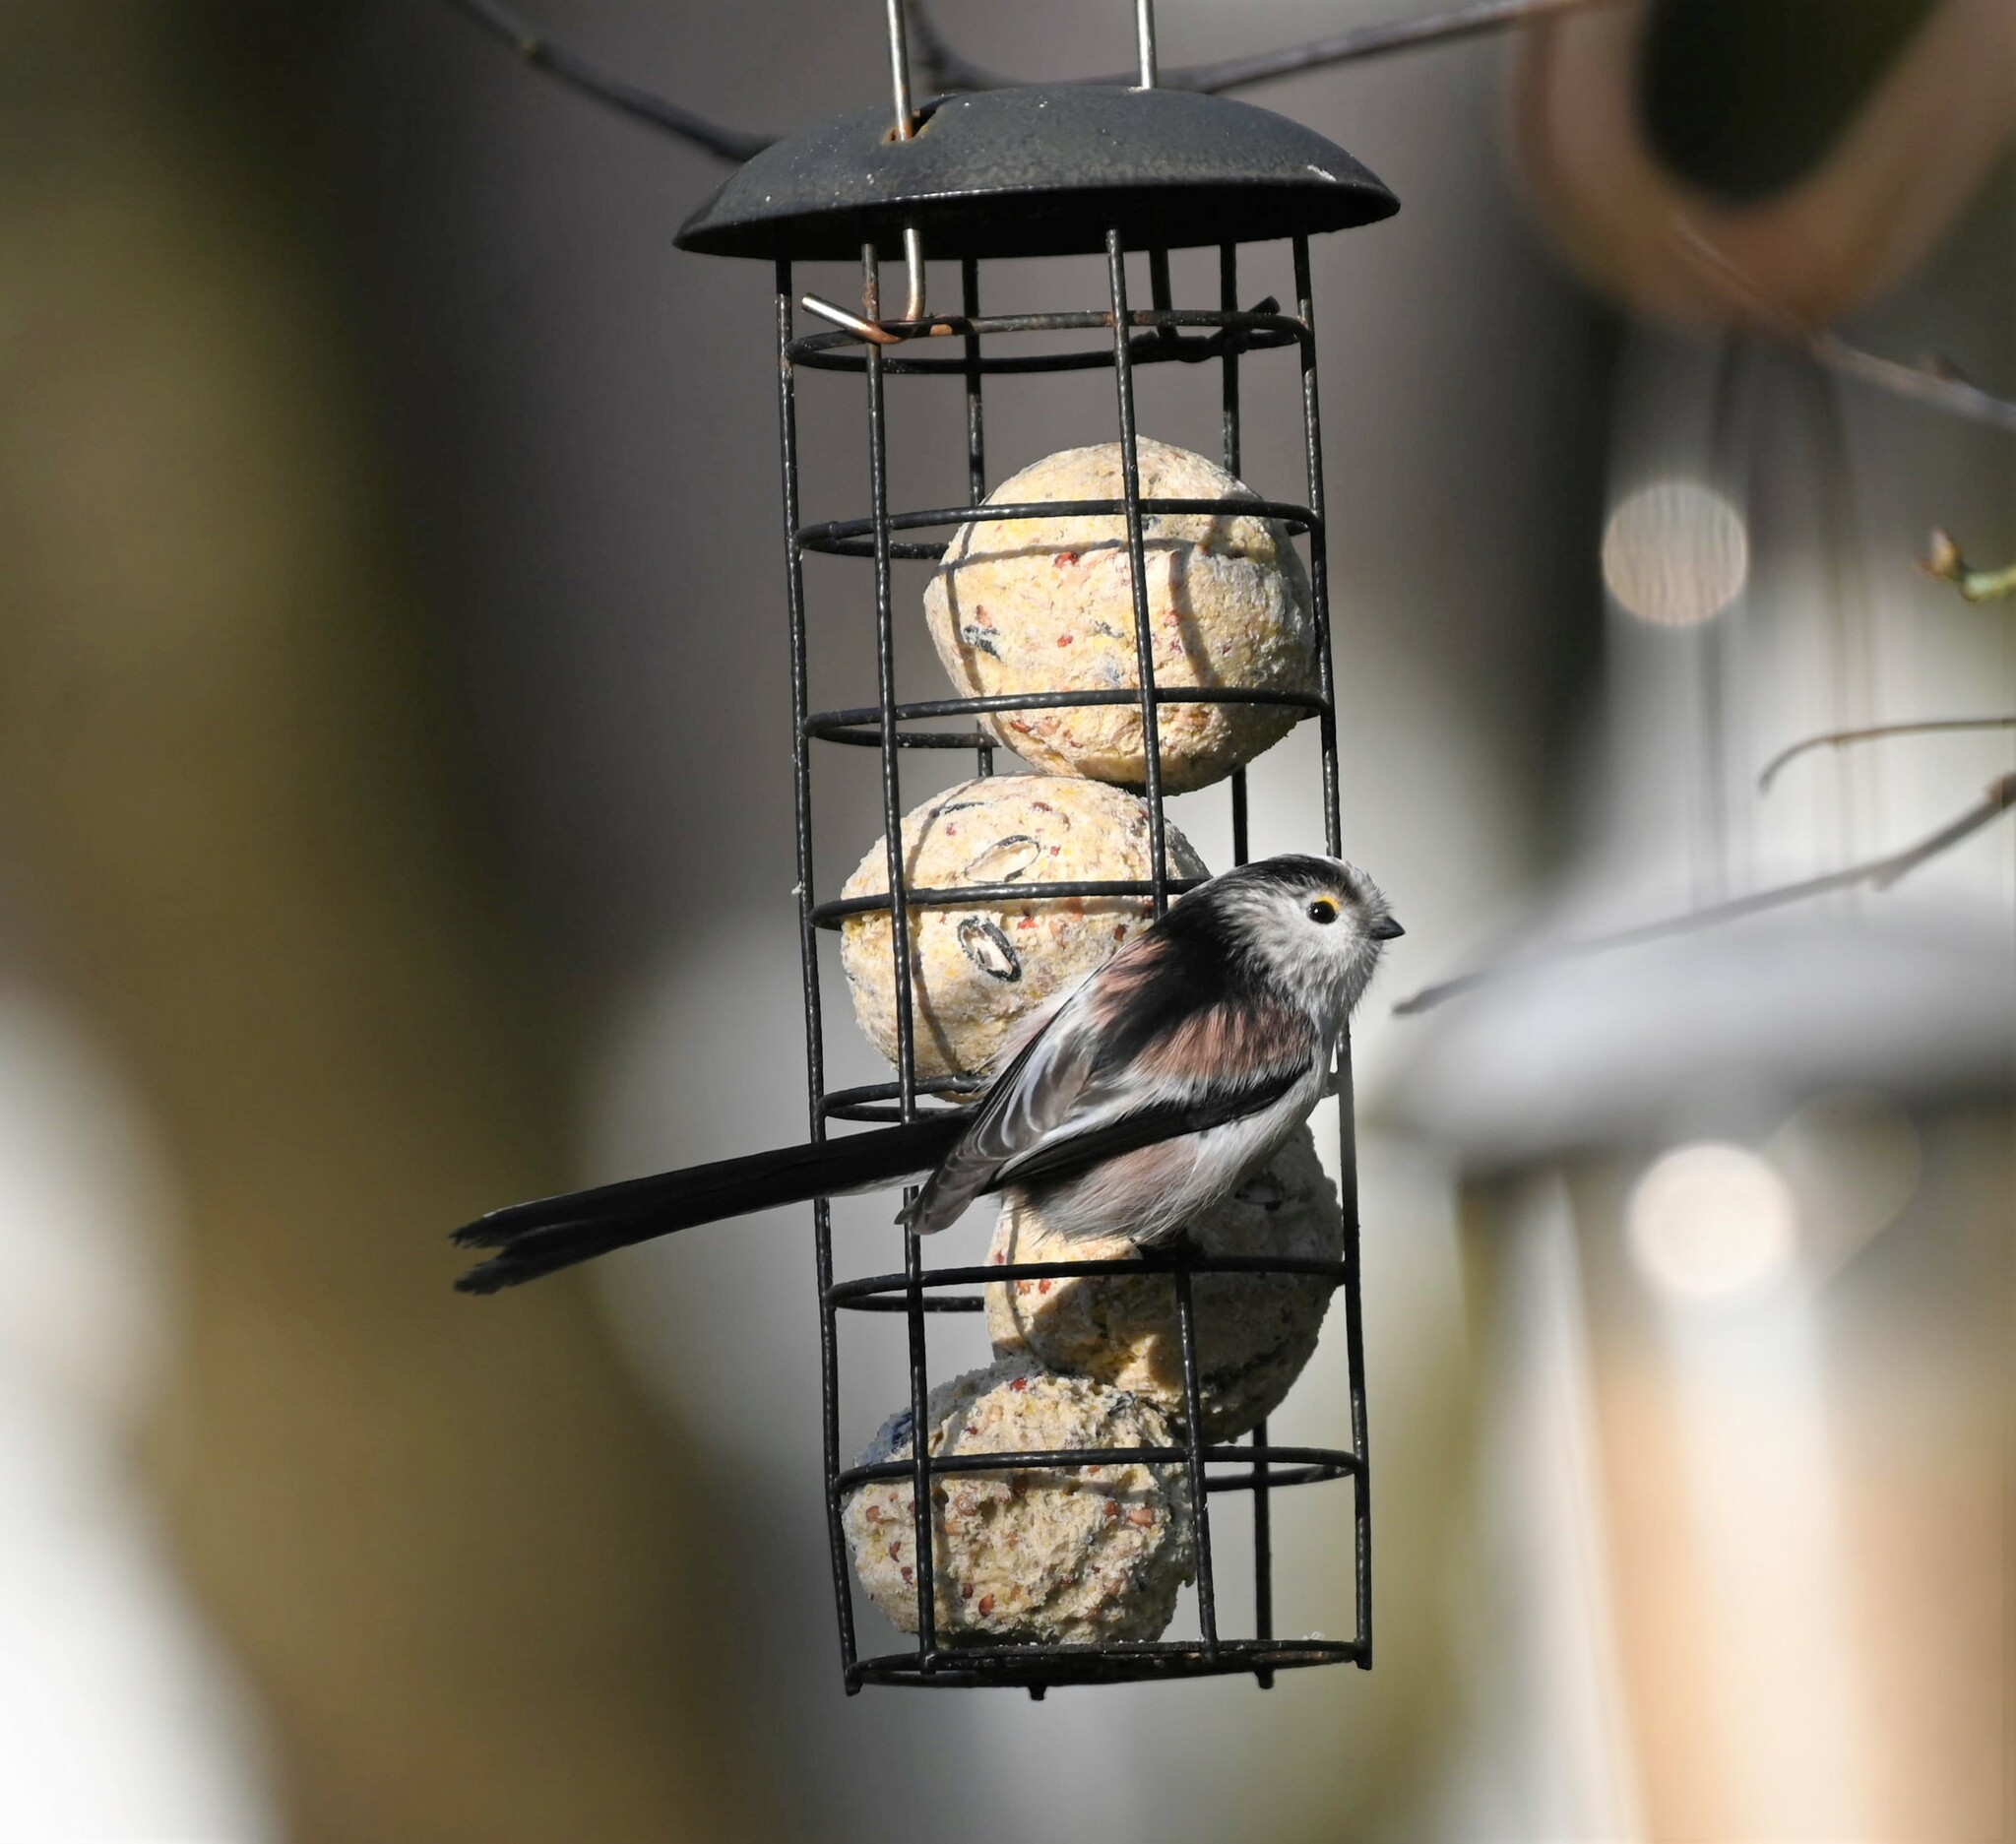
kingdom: Animalia
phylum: Chordata
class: Aves
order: Passeriformes
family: Aegithalidae
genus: Aegithalos
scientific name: Aegithalos caudatus
